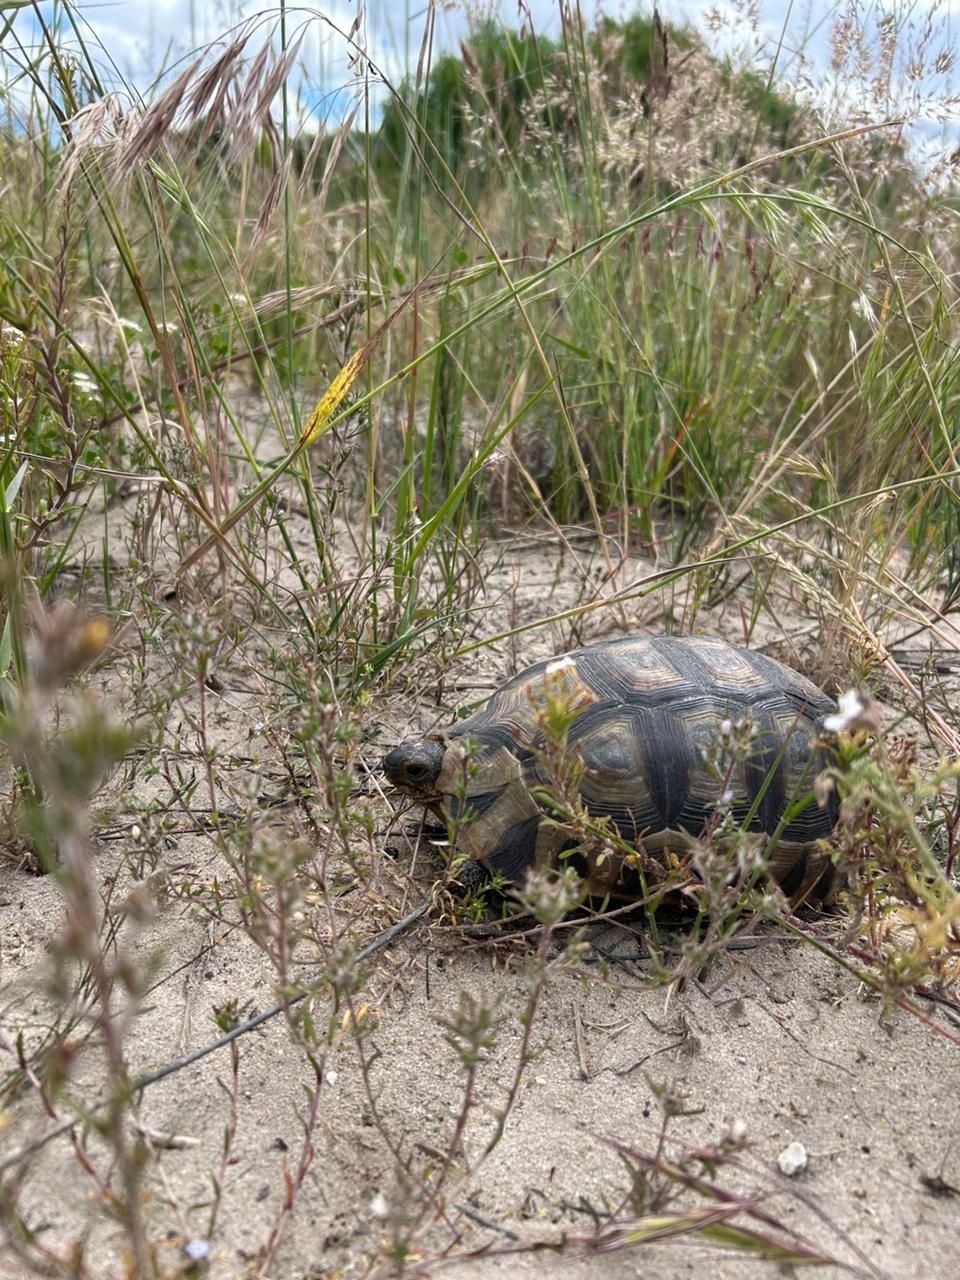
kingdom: Animalia
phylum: Chordata
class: Testudines
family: Testudinidae
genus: Chersina
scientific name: Chersina angulata
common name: South african bowsprit tortoise
